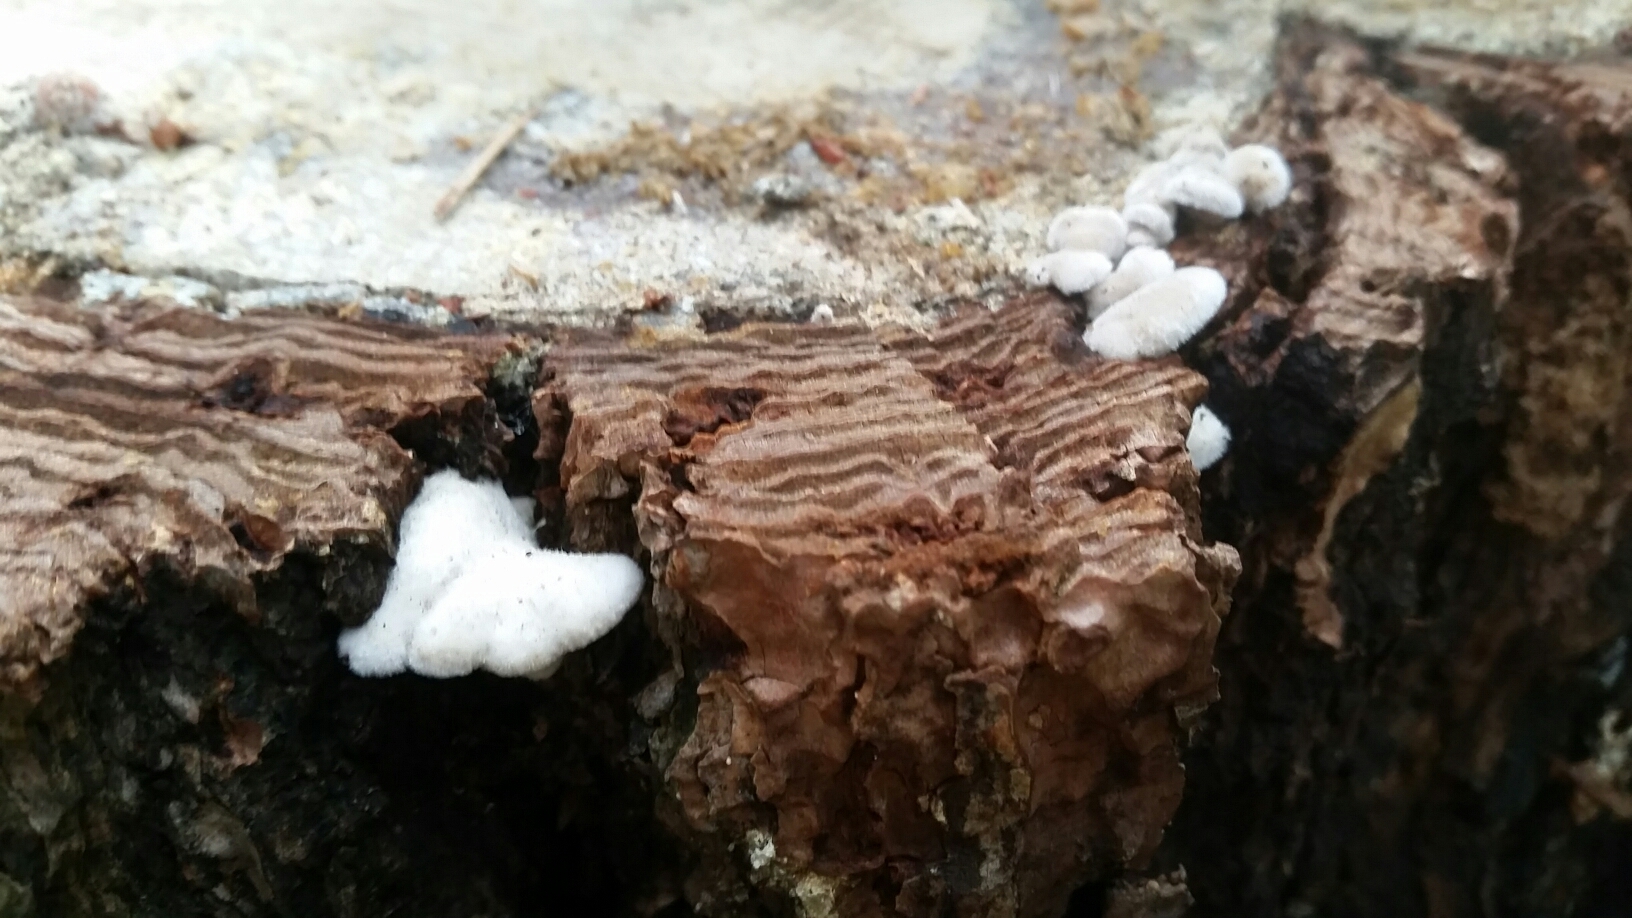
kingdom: Fungi
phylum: Basidiomycota
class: Agaricomycetes
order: Agaricales
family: Schizophyllaceae
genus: Schizophyllum
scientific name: Schizophyllum commune
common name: Common porecrust
